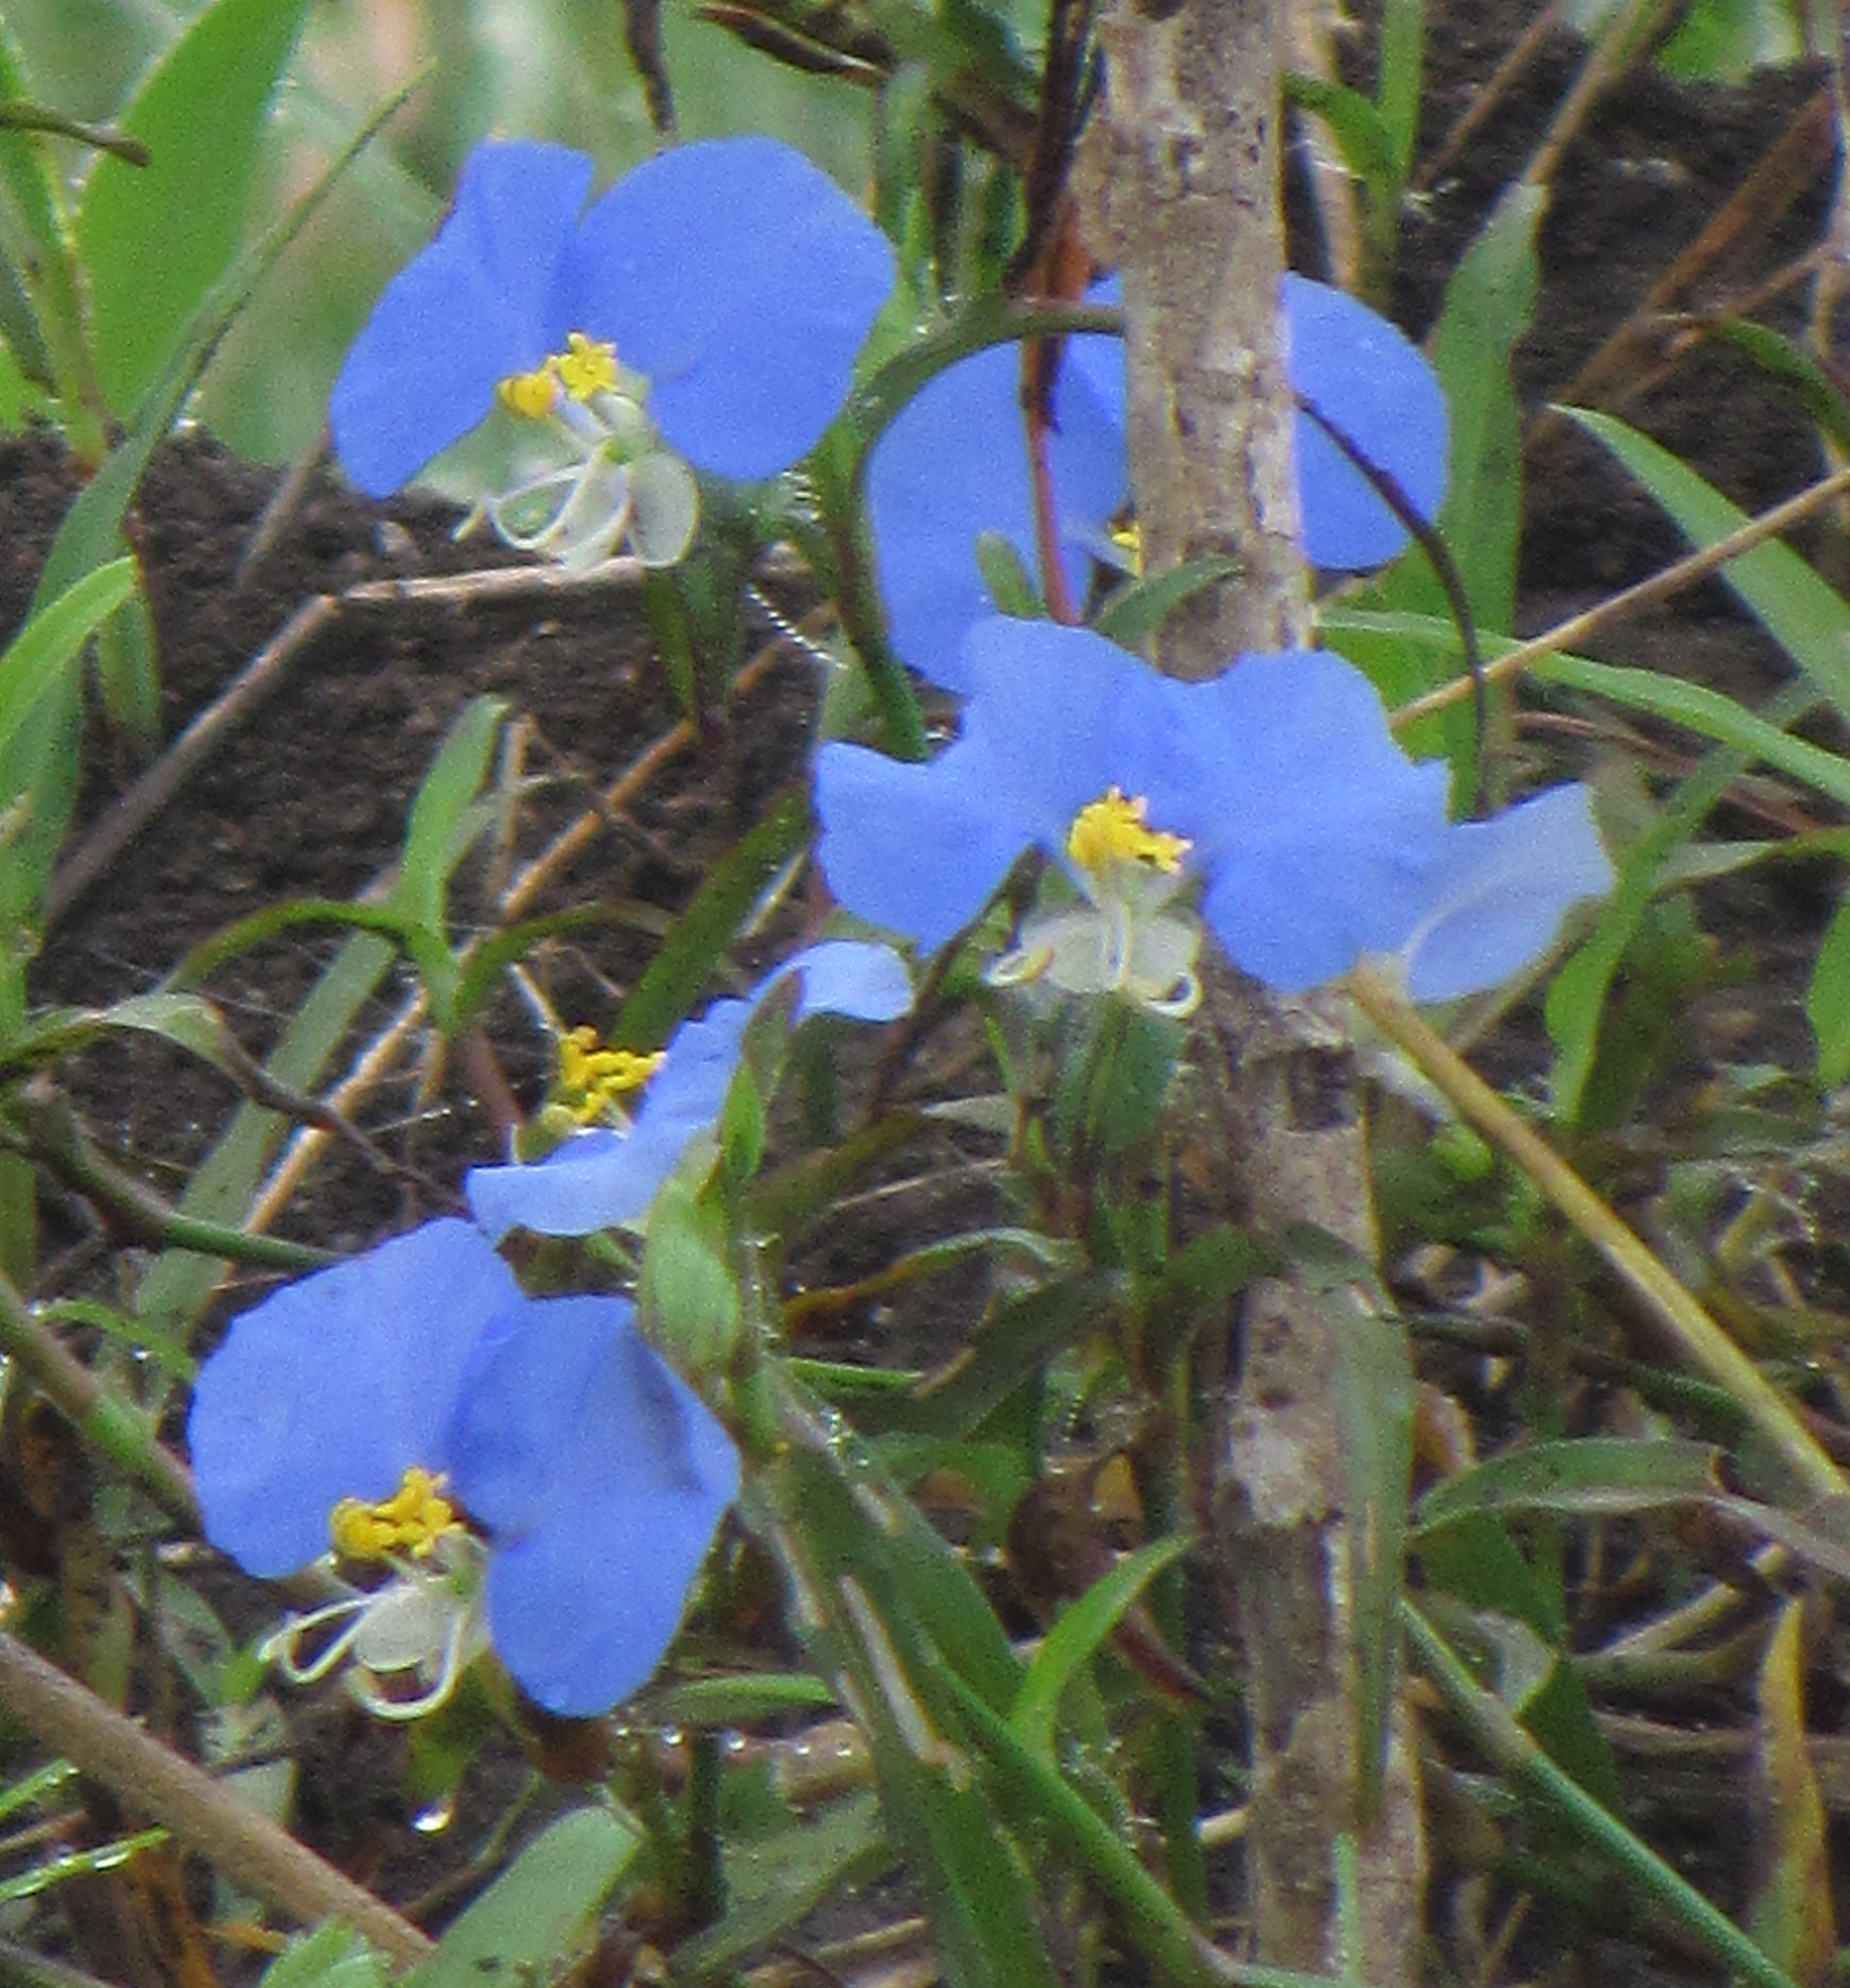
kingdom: Plantae
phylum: Tracheophyta
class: Liliopsida
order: Commelinales
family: Commelinaceae
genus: Commelina
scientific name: Commelina erecta
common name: Blousel blommetjie
